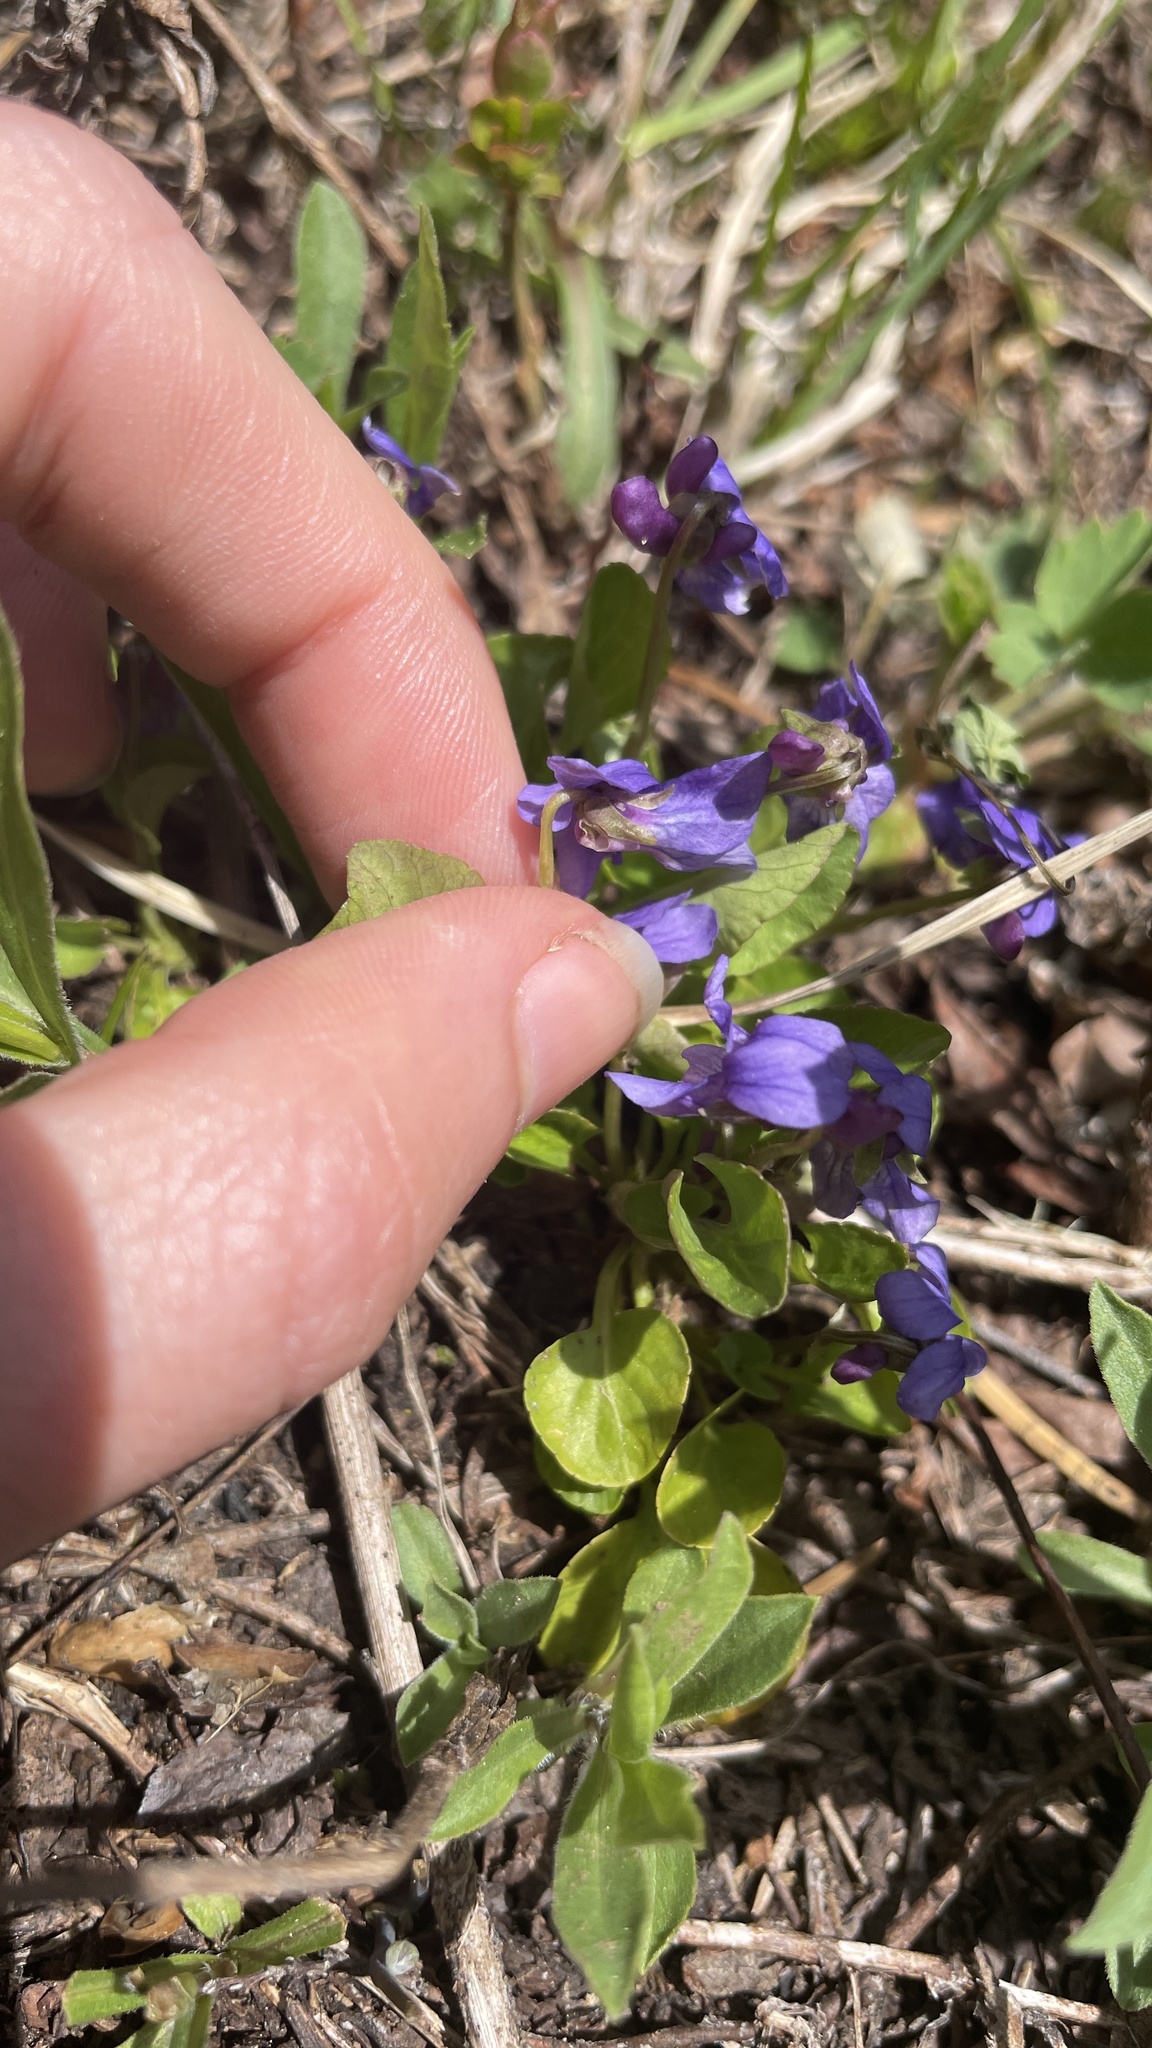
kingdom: Plantae
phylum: Tracheophyta
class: Magnoliopsida
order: Malpighiales
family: Violaceae
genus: Viola
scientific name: Viola adunca
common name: Sand violet
